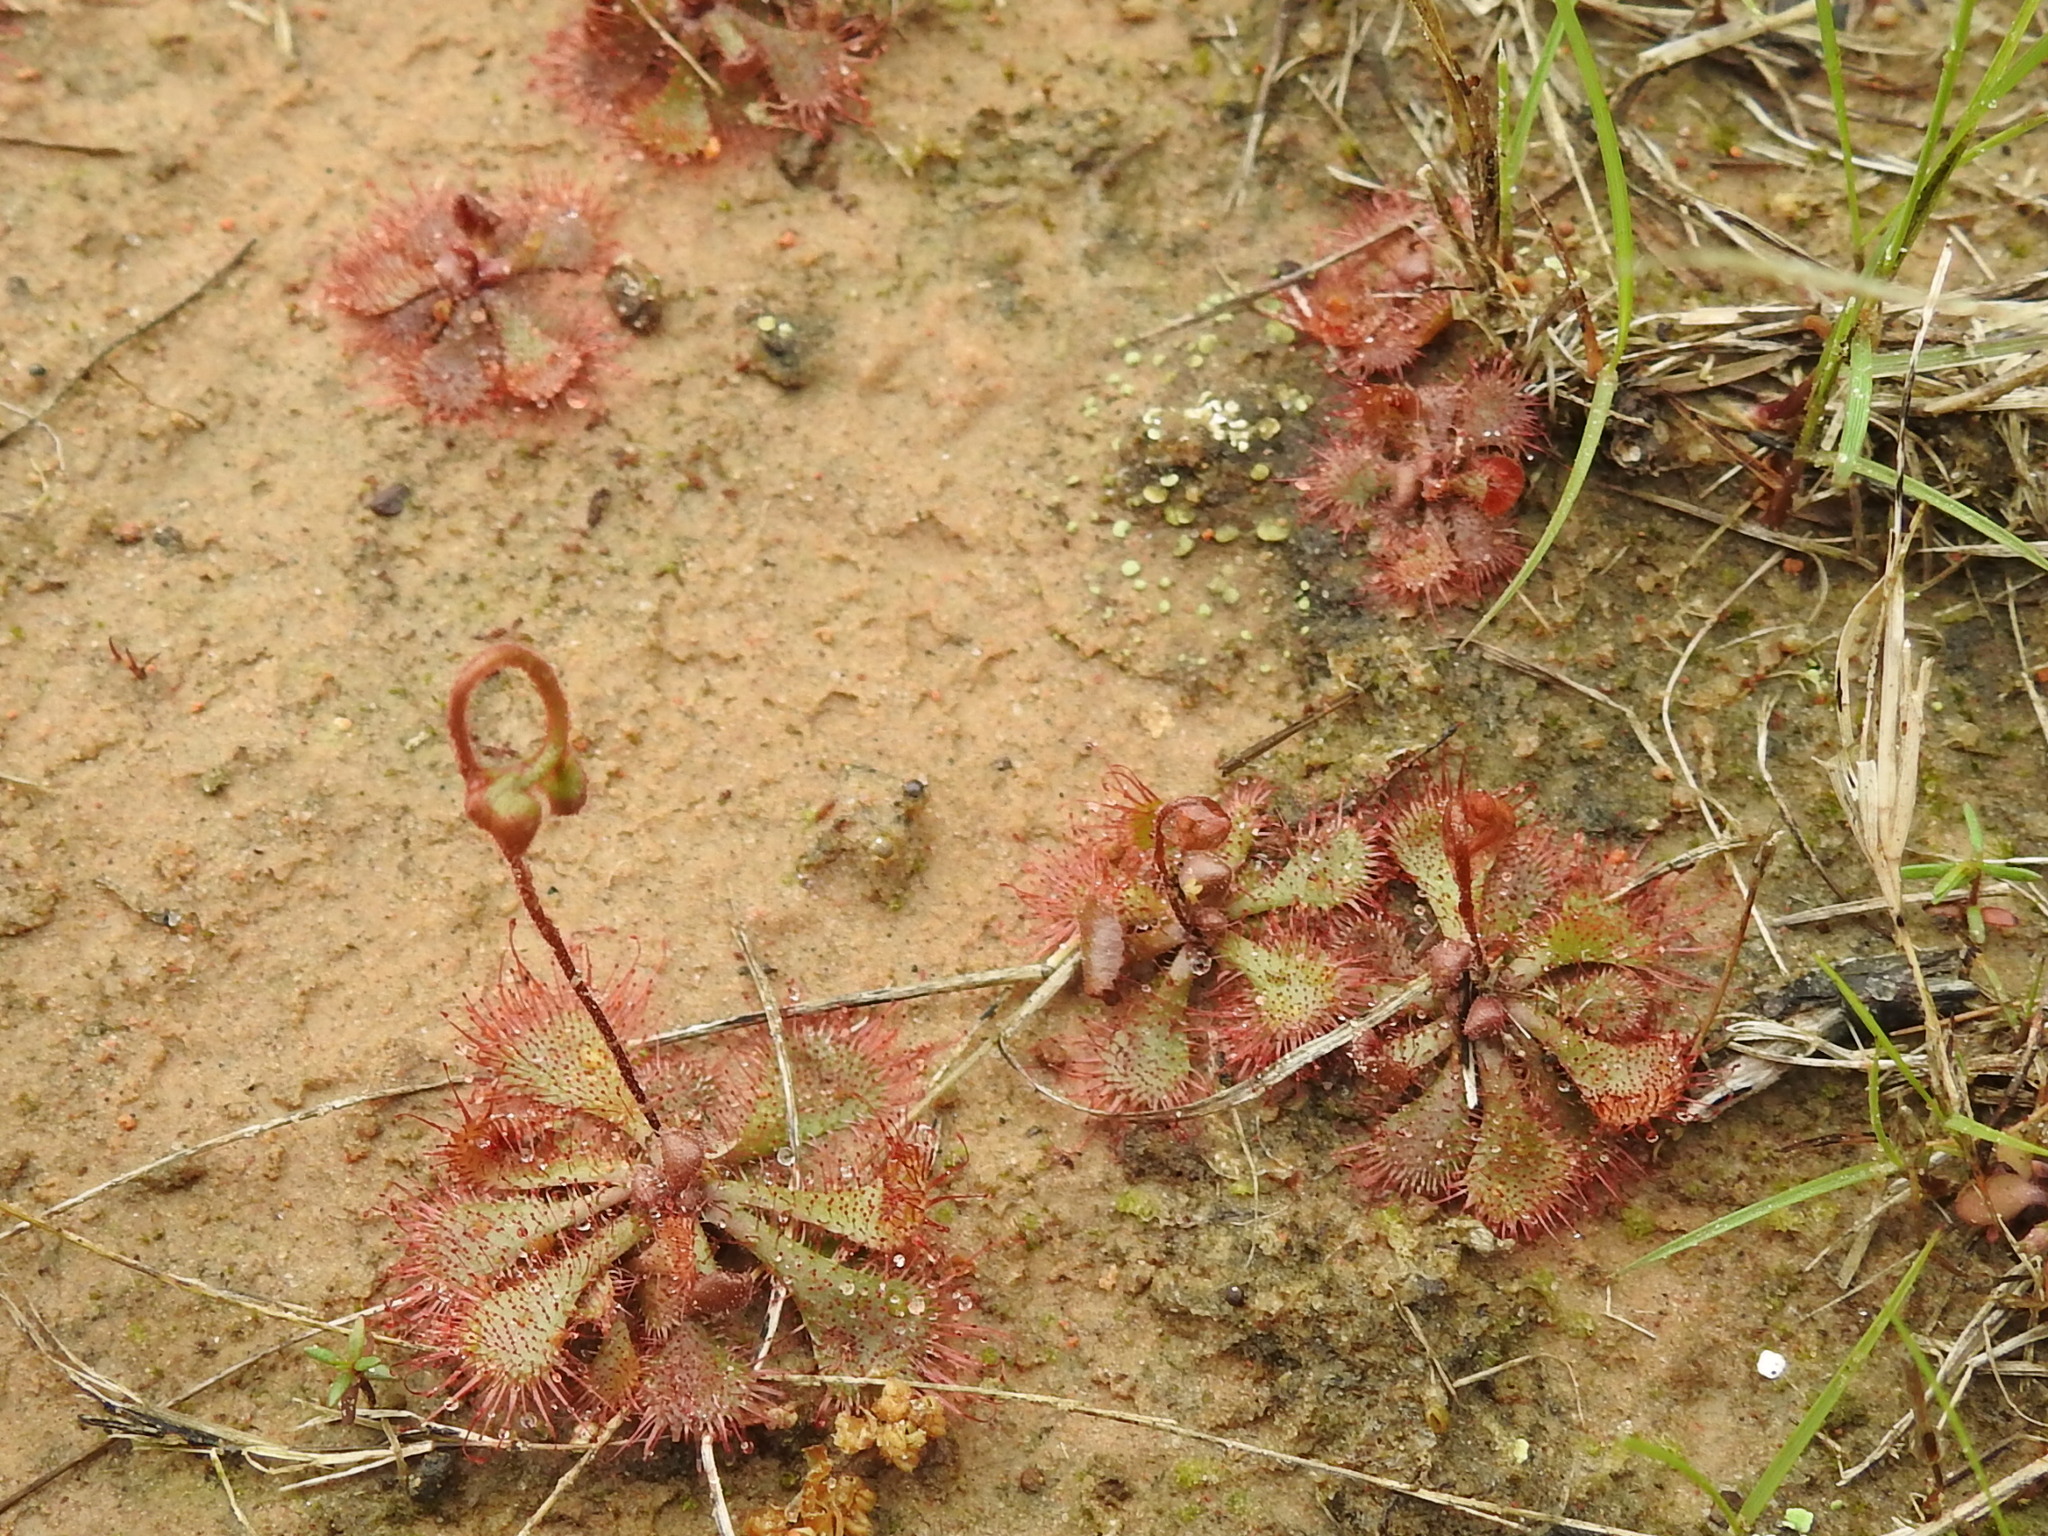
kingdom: Plantae
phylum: Tracheophyta
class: Magnoliopsida
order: Caryophyllales
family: Droseraceae
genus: Drosera
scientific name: Drosera brevifolia
